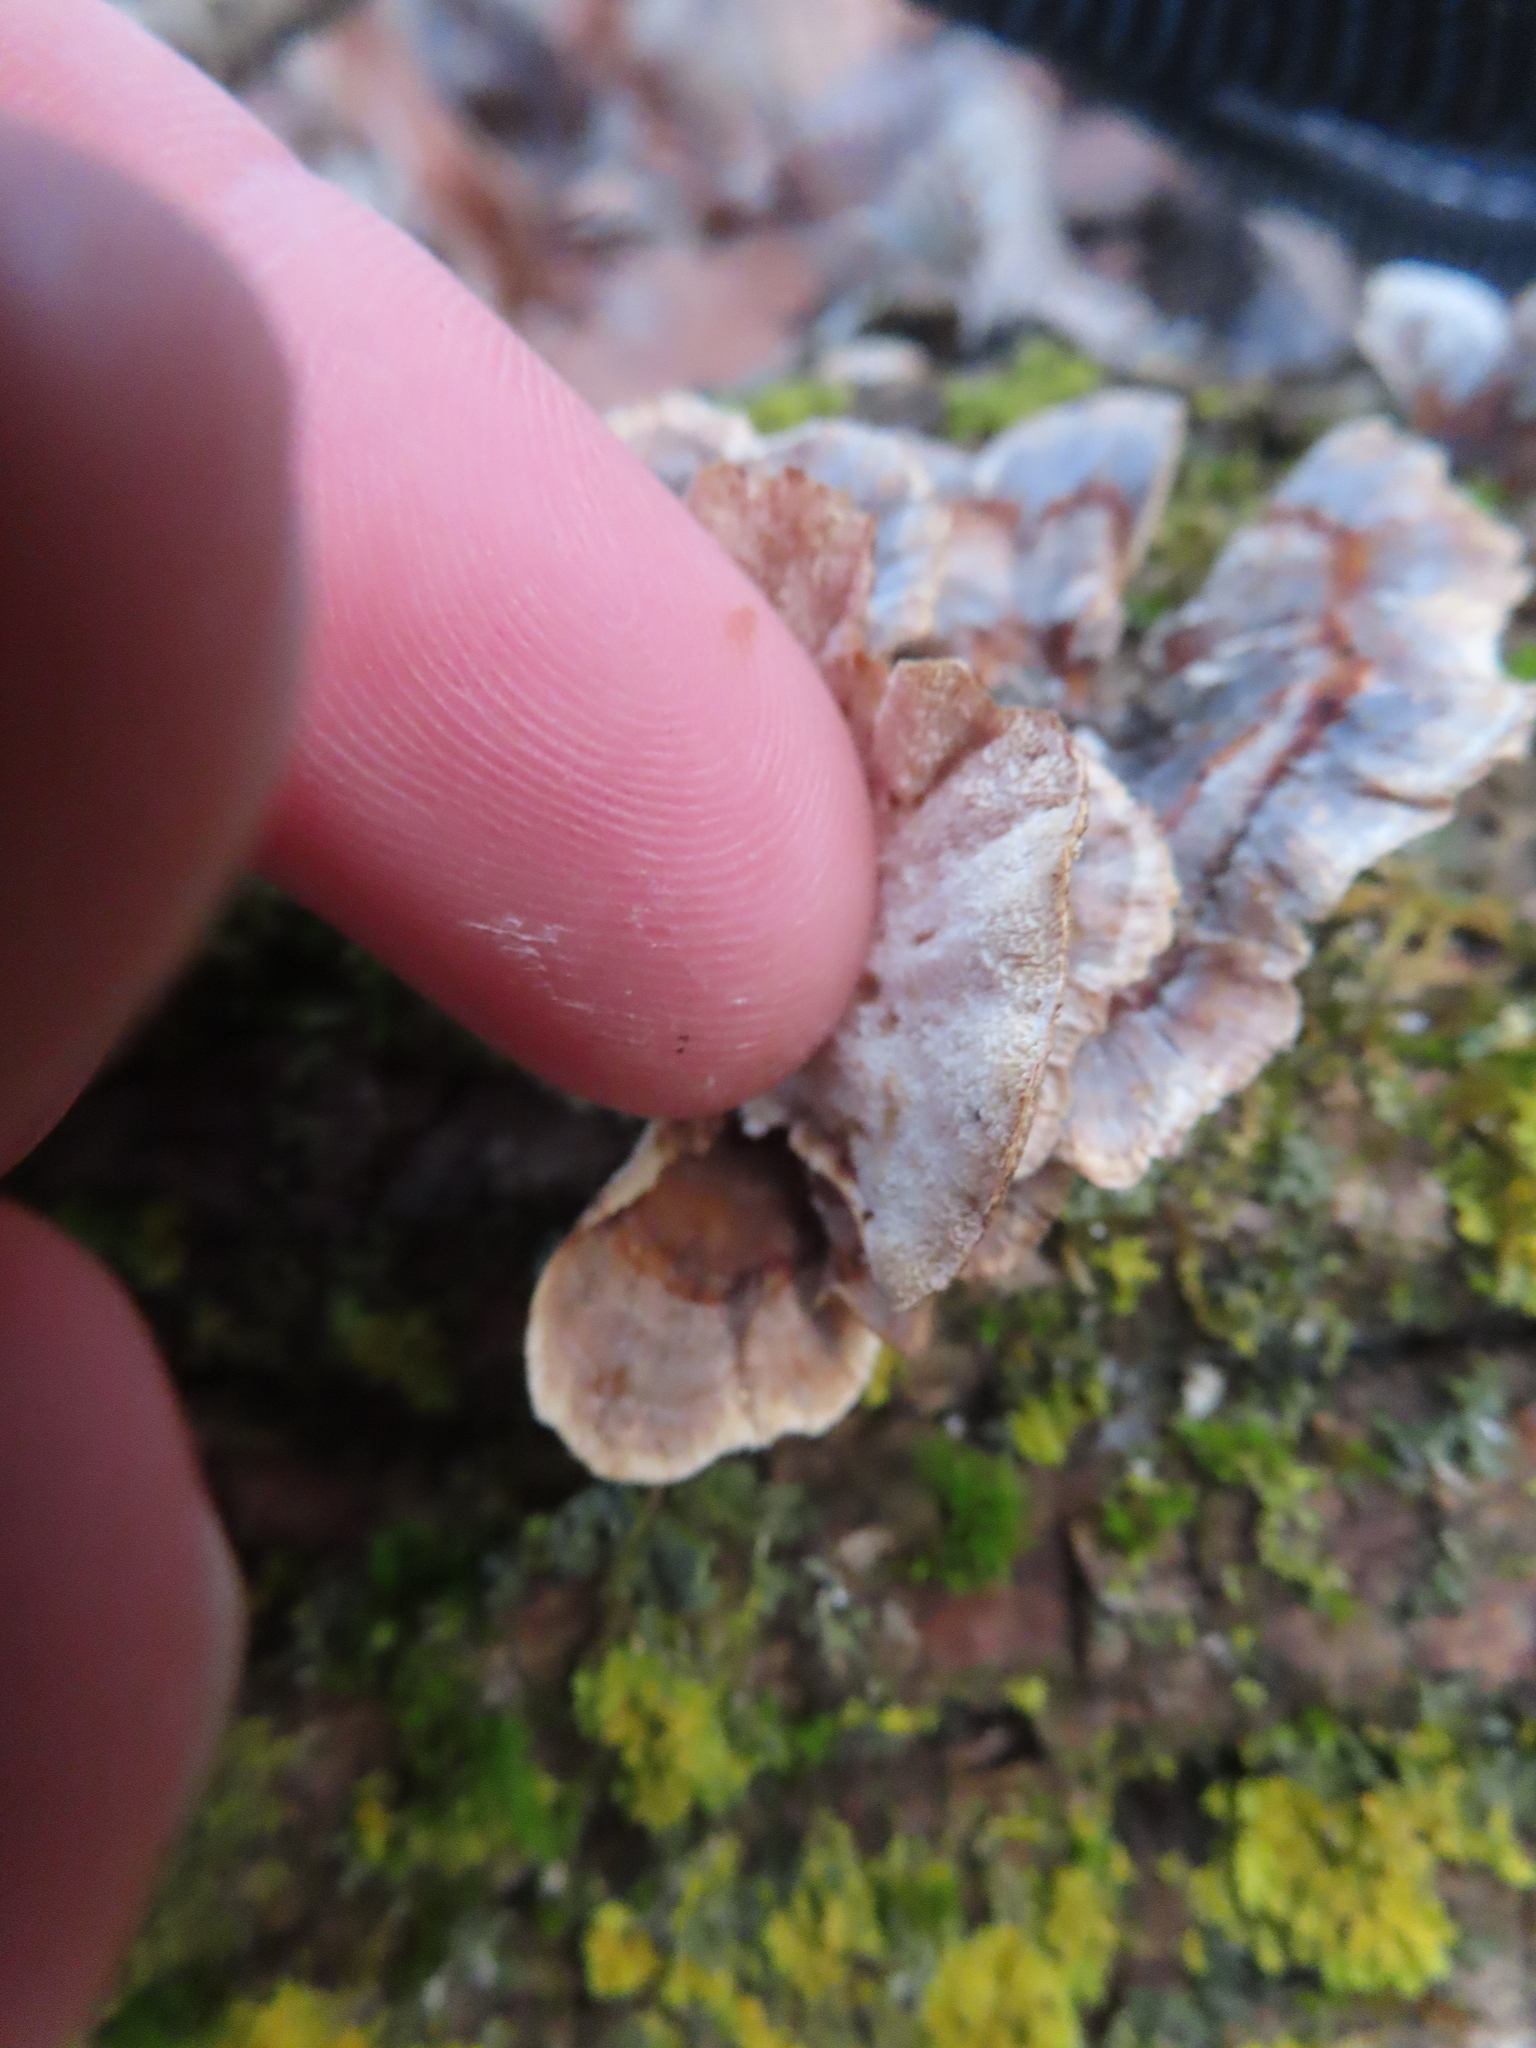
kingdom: Fungi
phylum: Basidiomycota
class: Agaricomycetes
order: Polyporales
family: Polyporaceae
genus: Trametes
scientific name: Trametes versicolor
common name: Turkeytail
